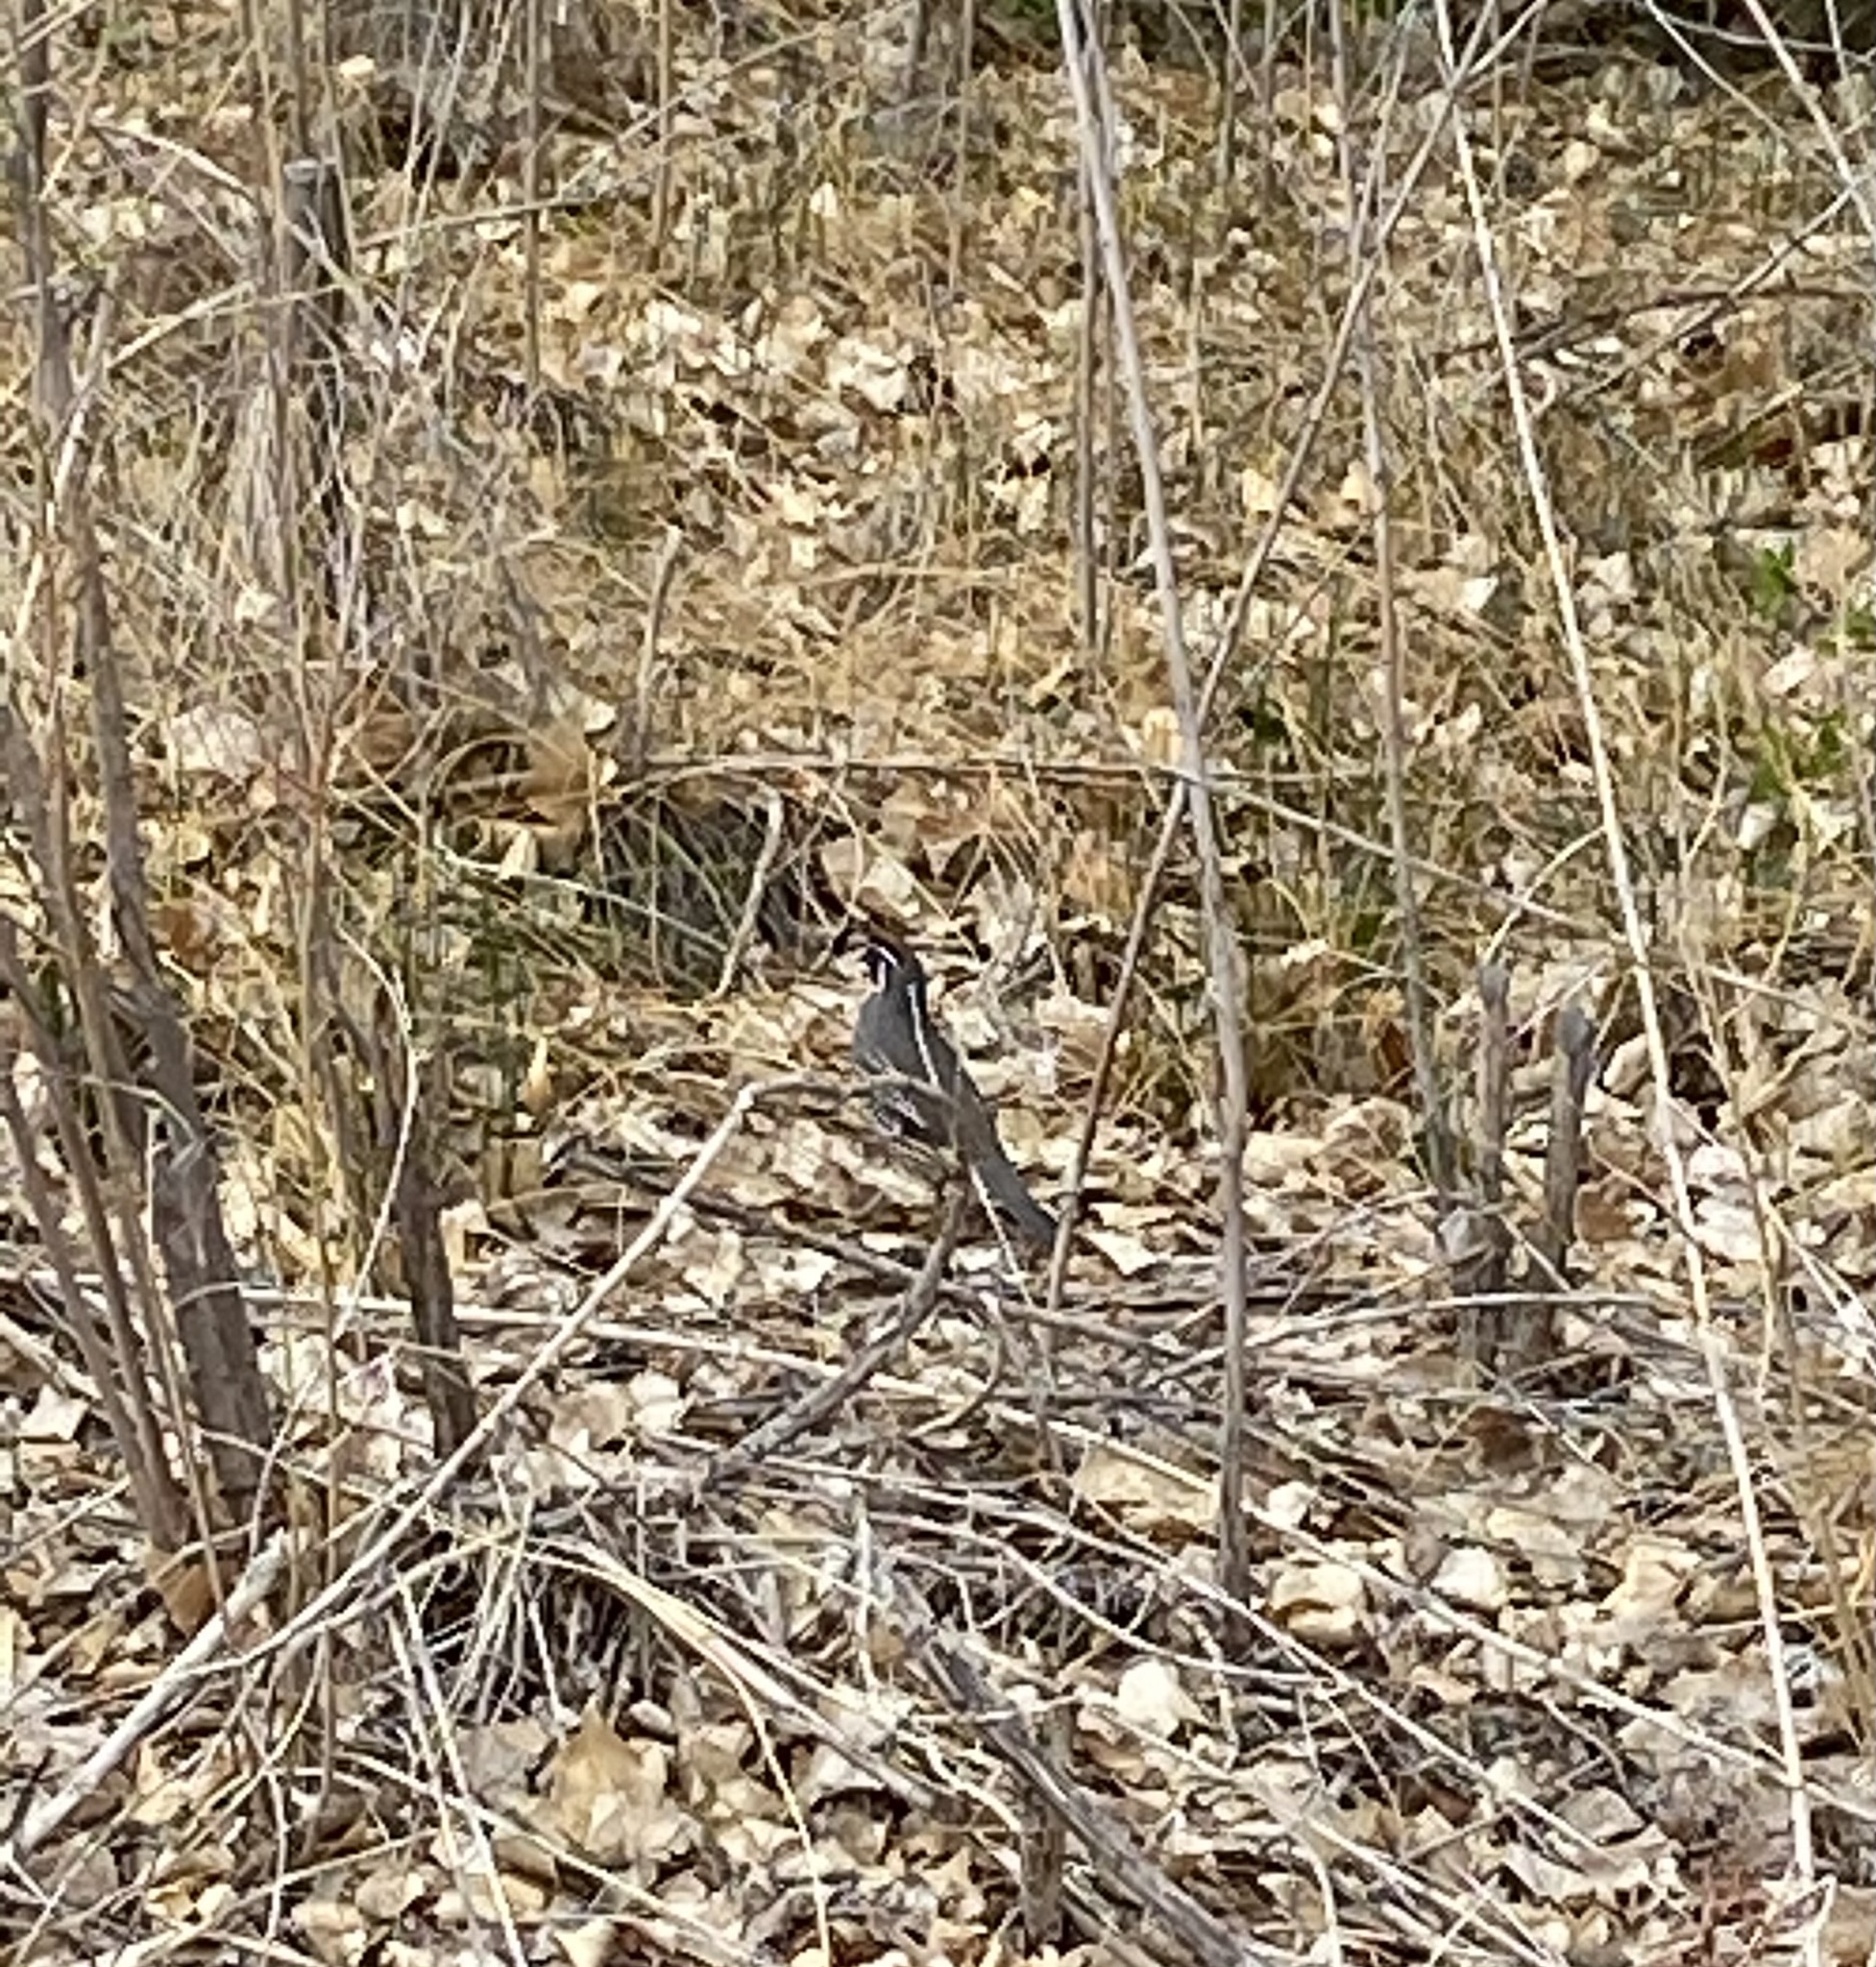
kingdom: Animalia
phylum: Chordata
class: Aves
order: Galliformes
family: Odontophoridae
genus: Callipepla
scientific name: Callipepla californica
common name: California quail
